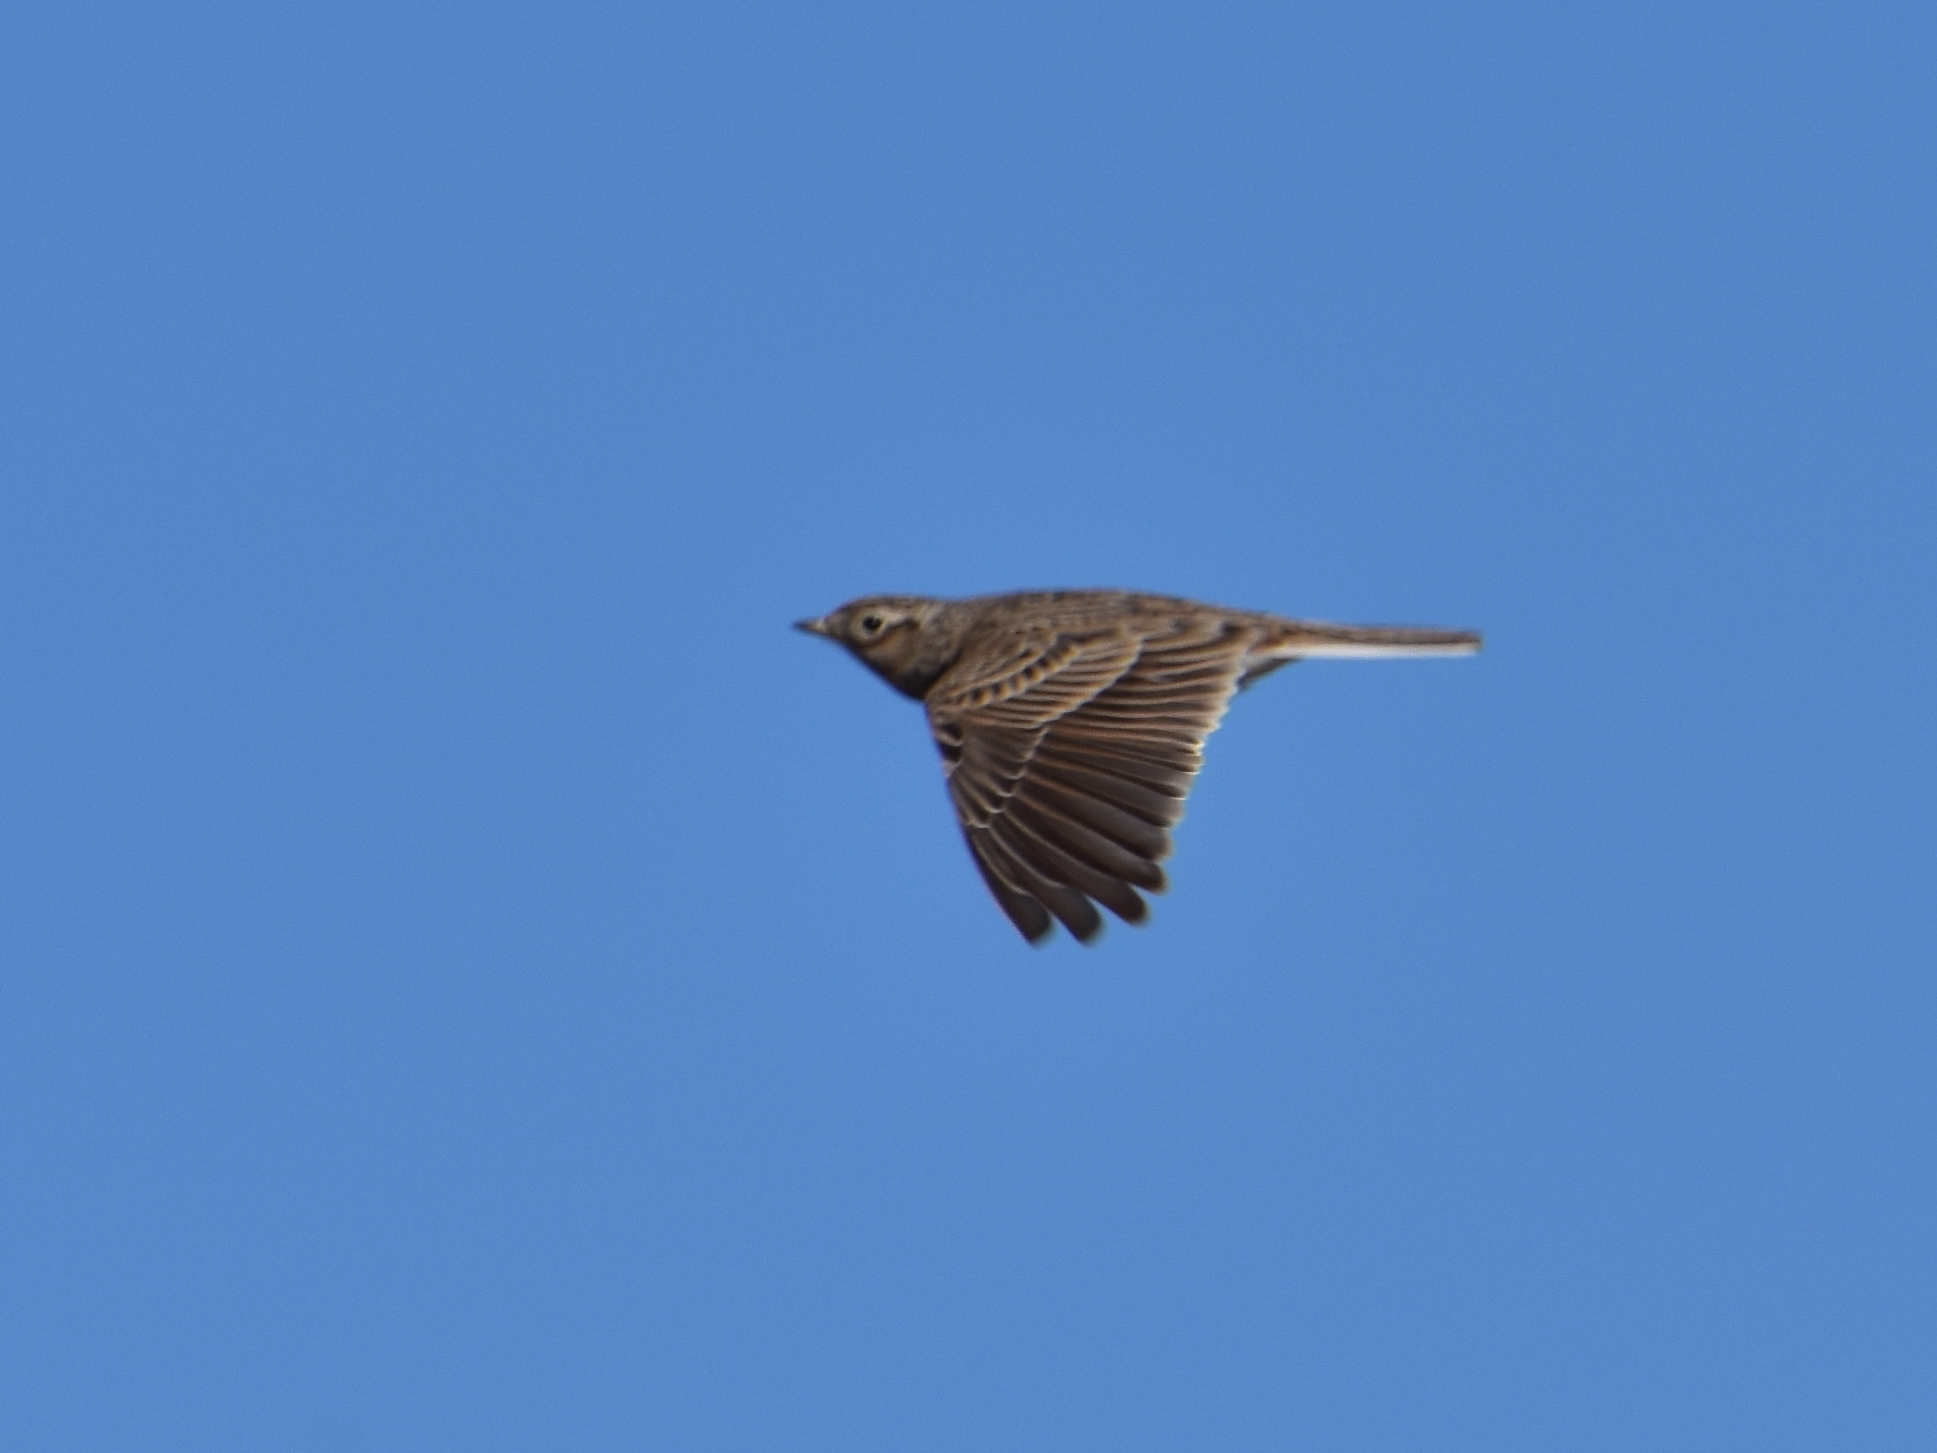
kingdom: Animalia
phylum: Chordata
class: Aves
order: Passeriformes
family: Alaudidae
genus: Alauda
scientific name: Alauda arvensis
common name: Eurasian skylark
